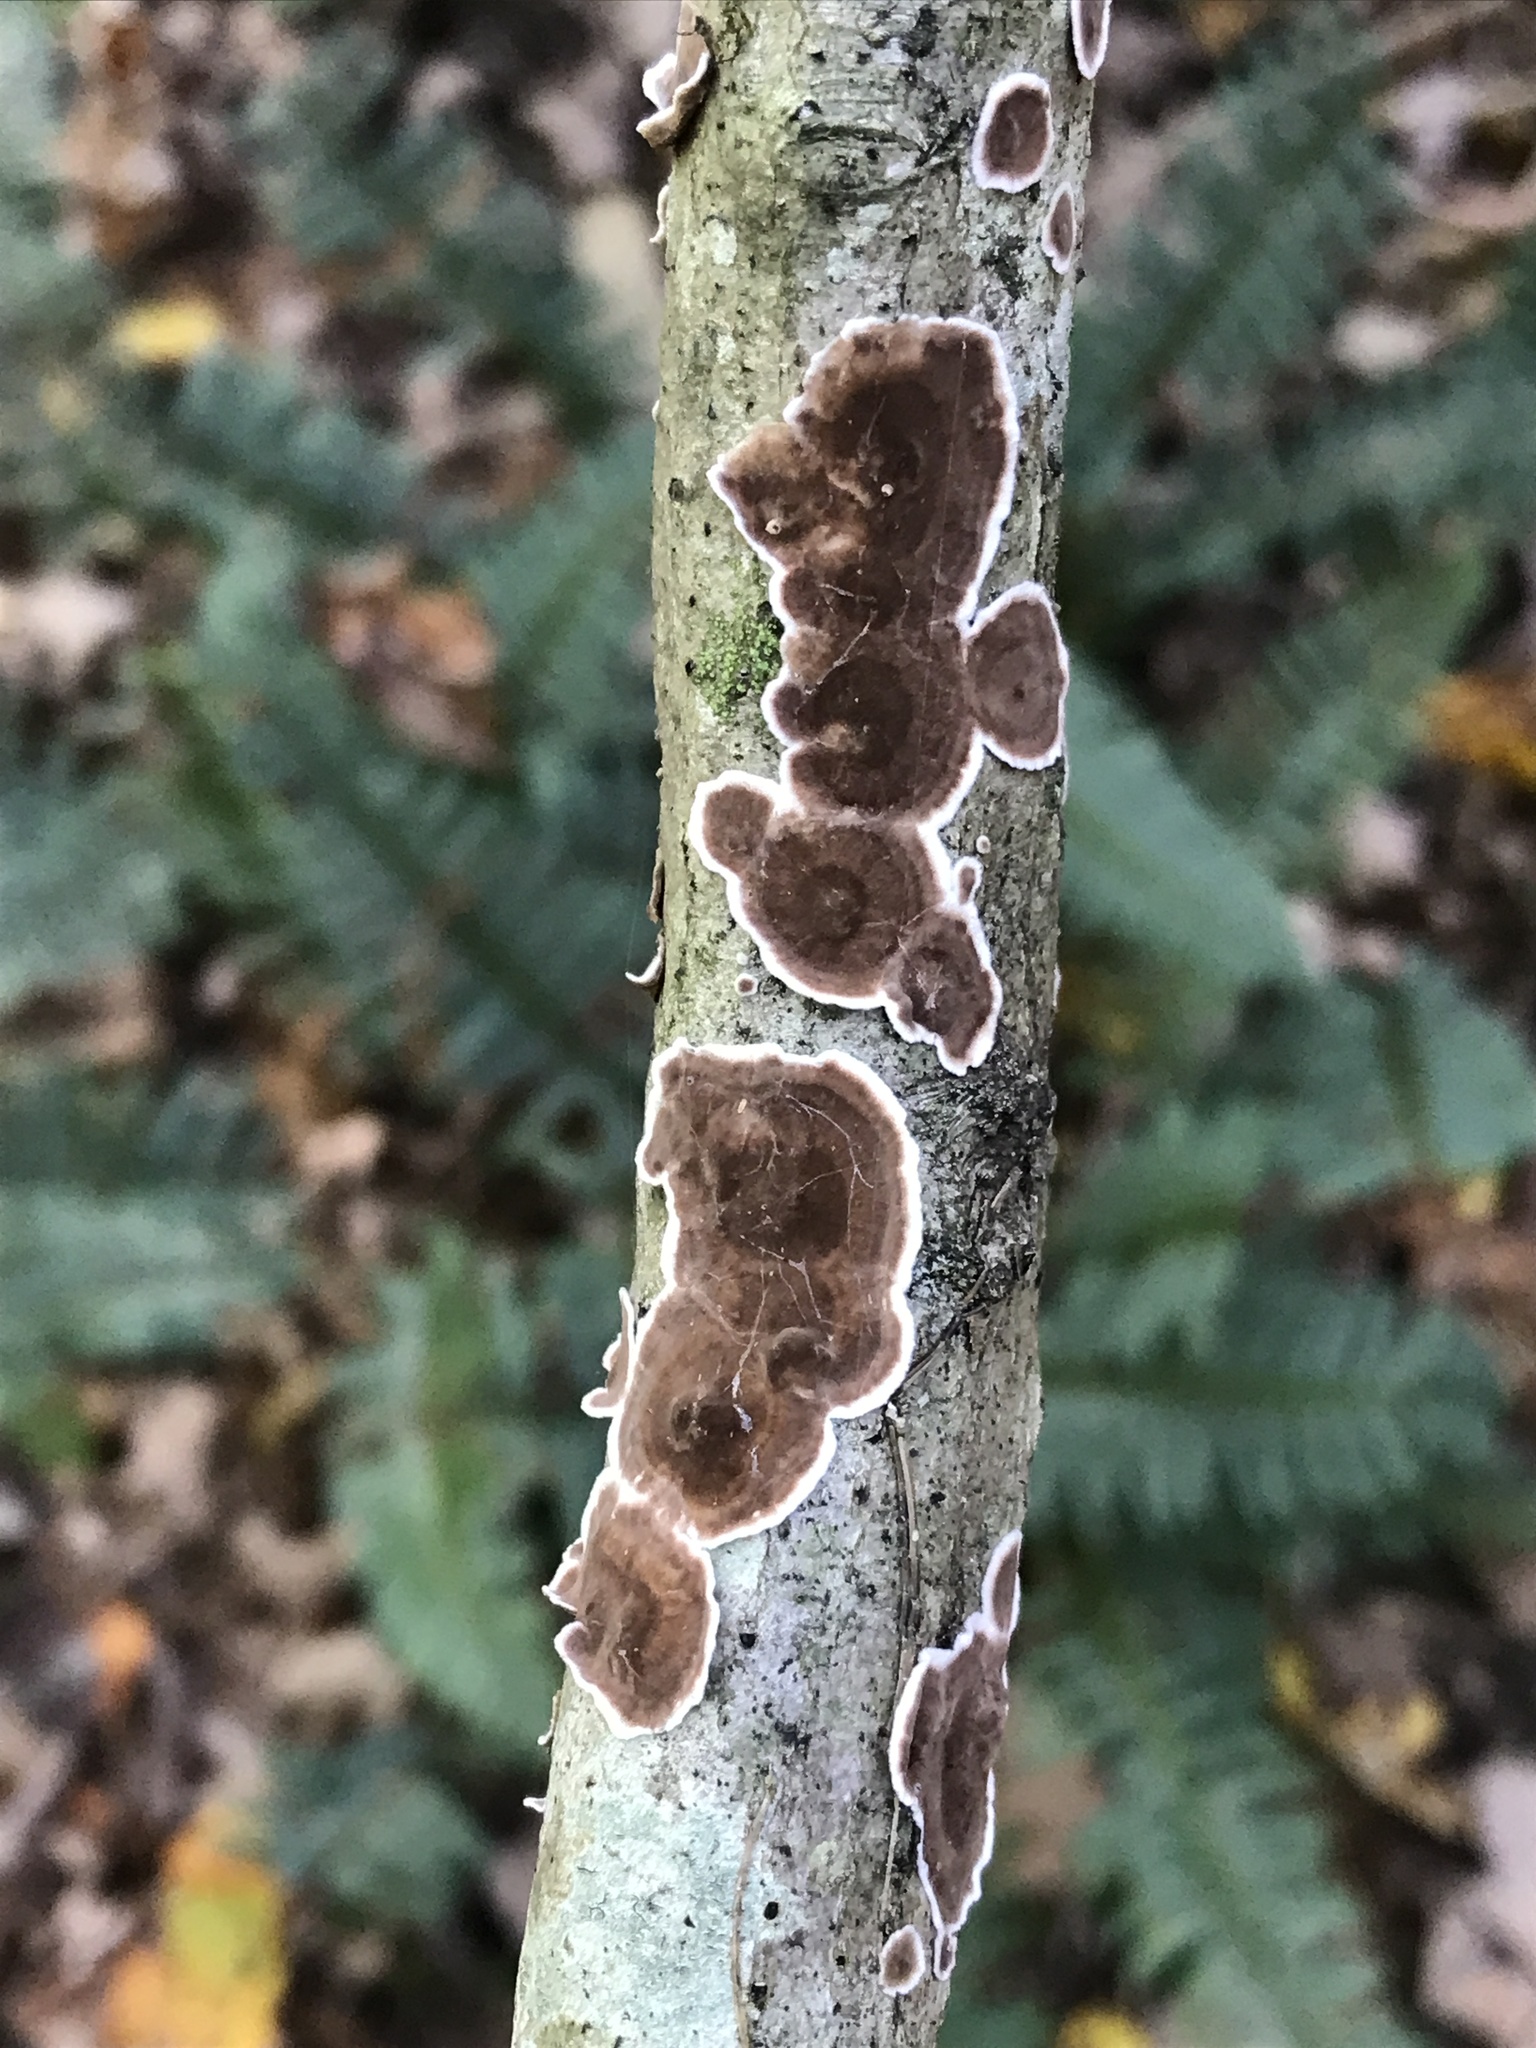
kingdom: Fungi
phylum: Basidiomycota
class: Agaricomycetes
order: Russulales
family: Peniophoraceae
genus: Peniophora
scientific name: Peniophora albobadia
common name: Giraffe spots
